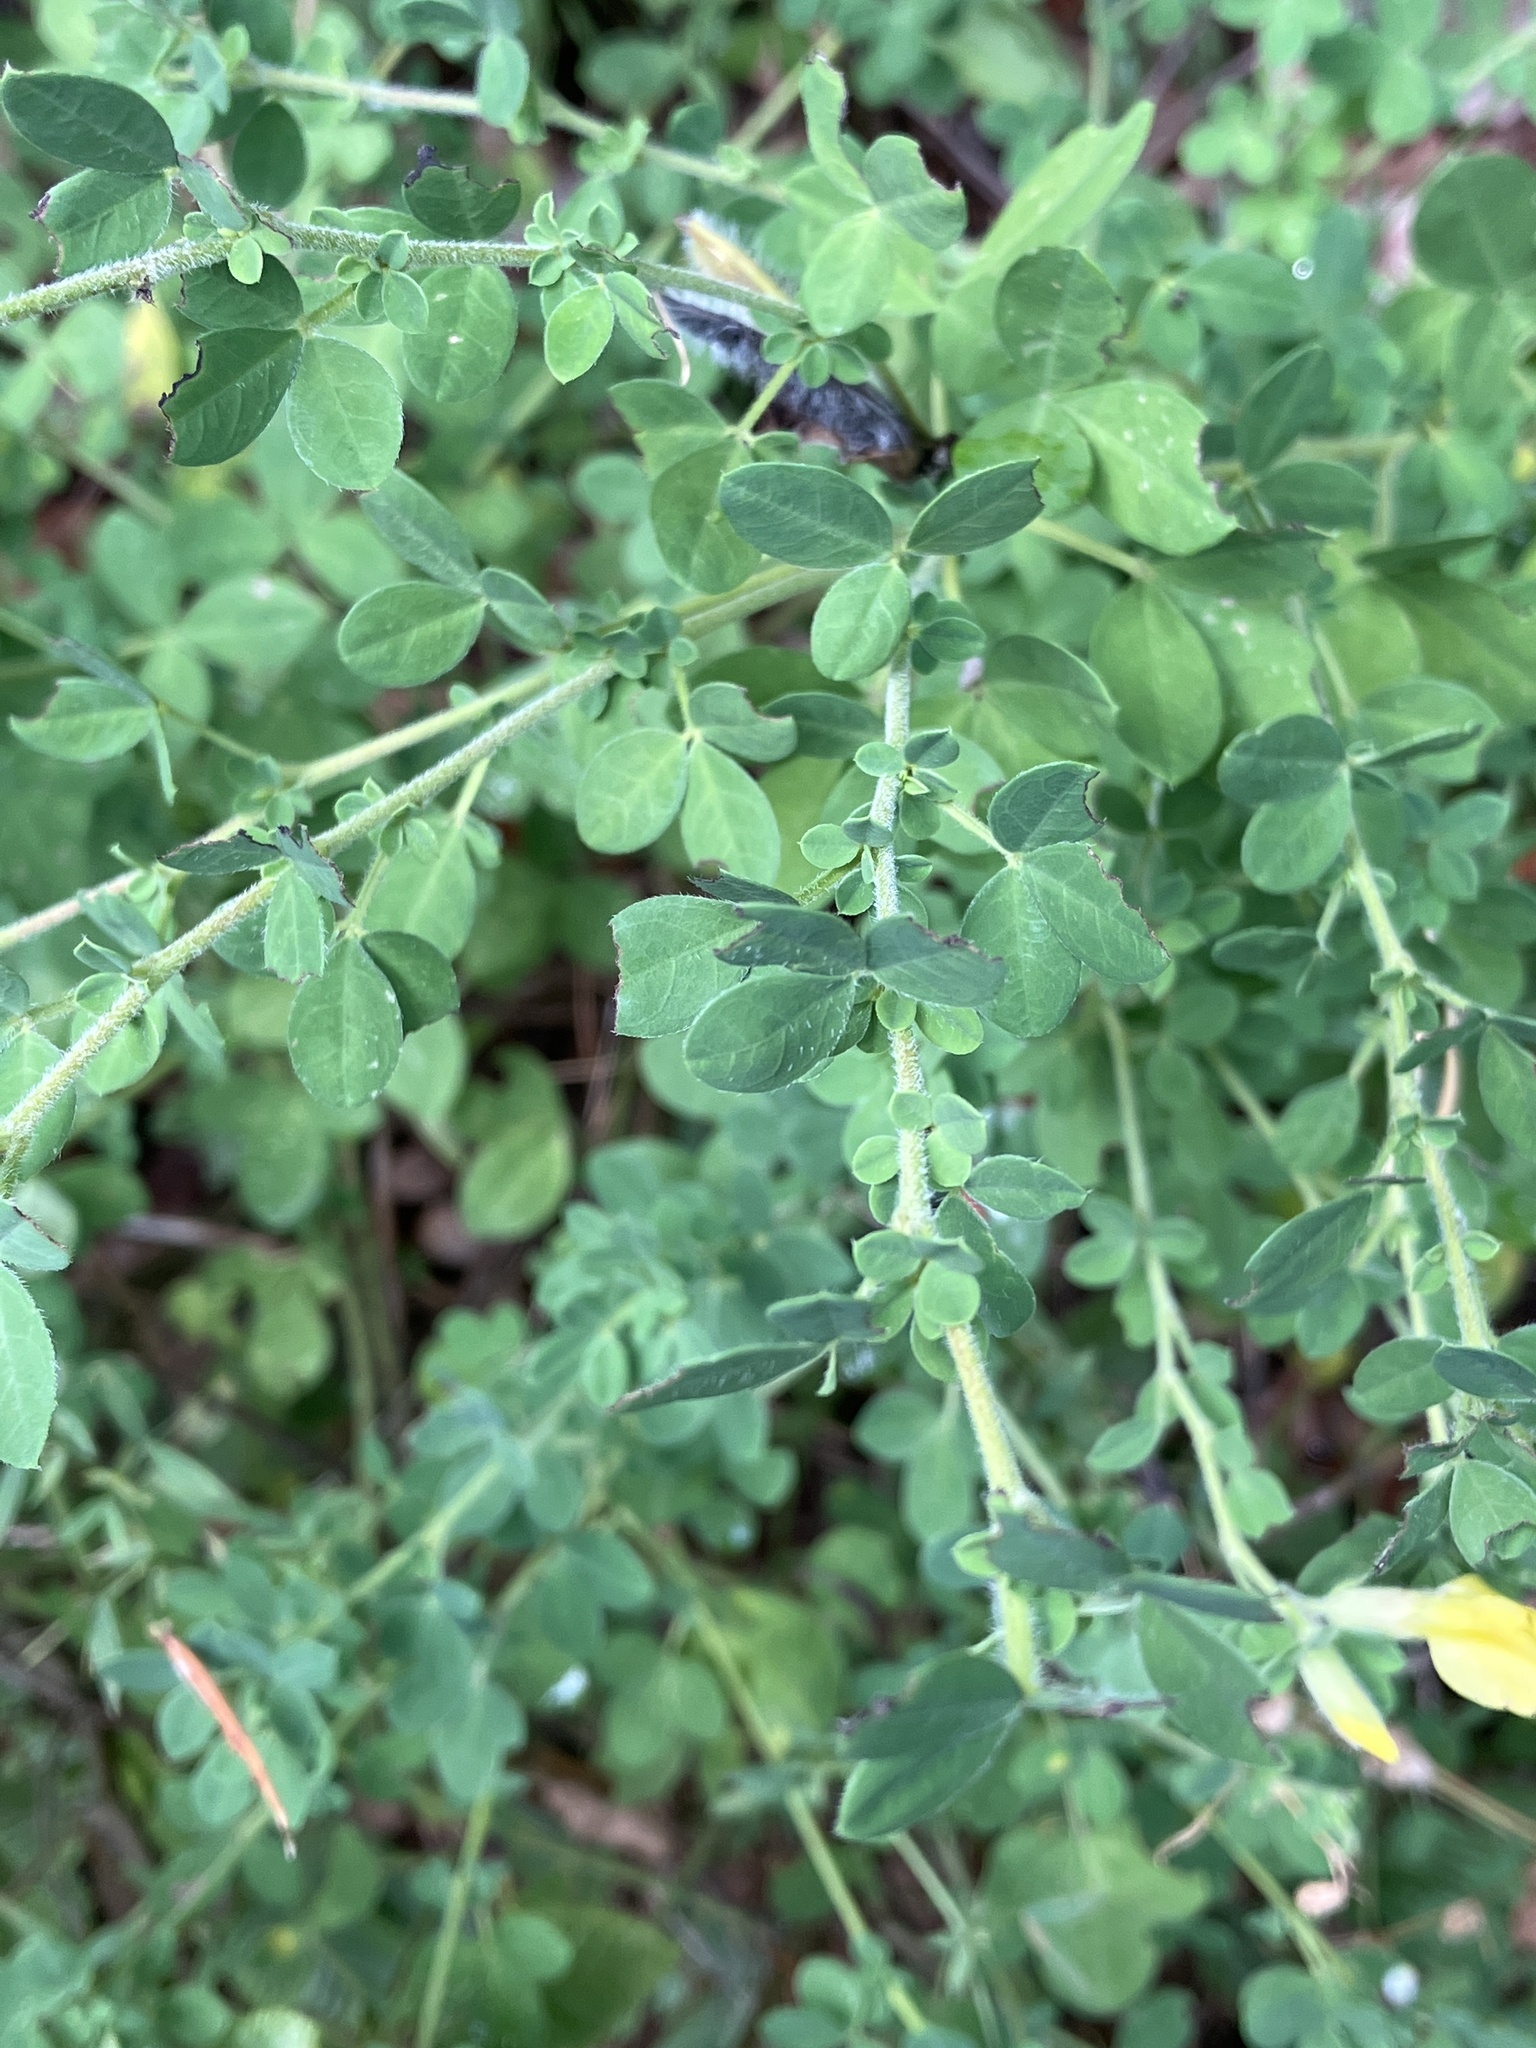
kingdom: Plantae
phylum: Tracheophyta
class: Magnoliopsida
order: Fabales
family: Fabaceae
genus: Chamaecytisus
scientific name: Chamaecytisus hirsutus
